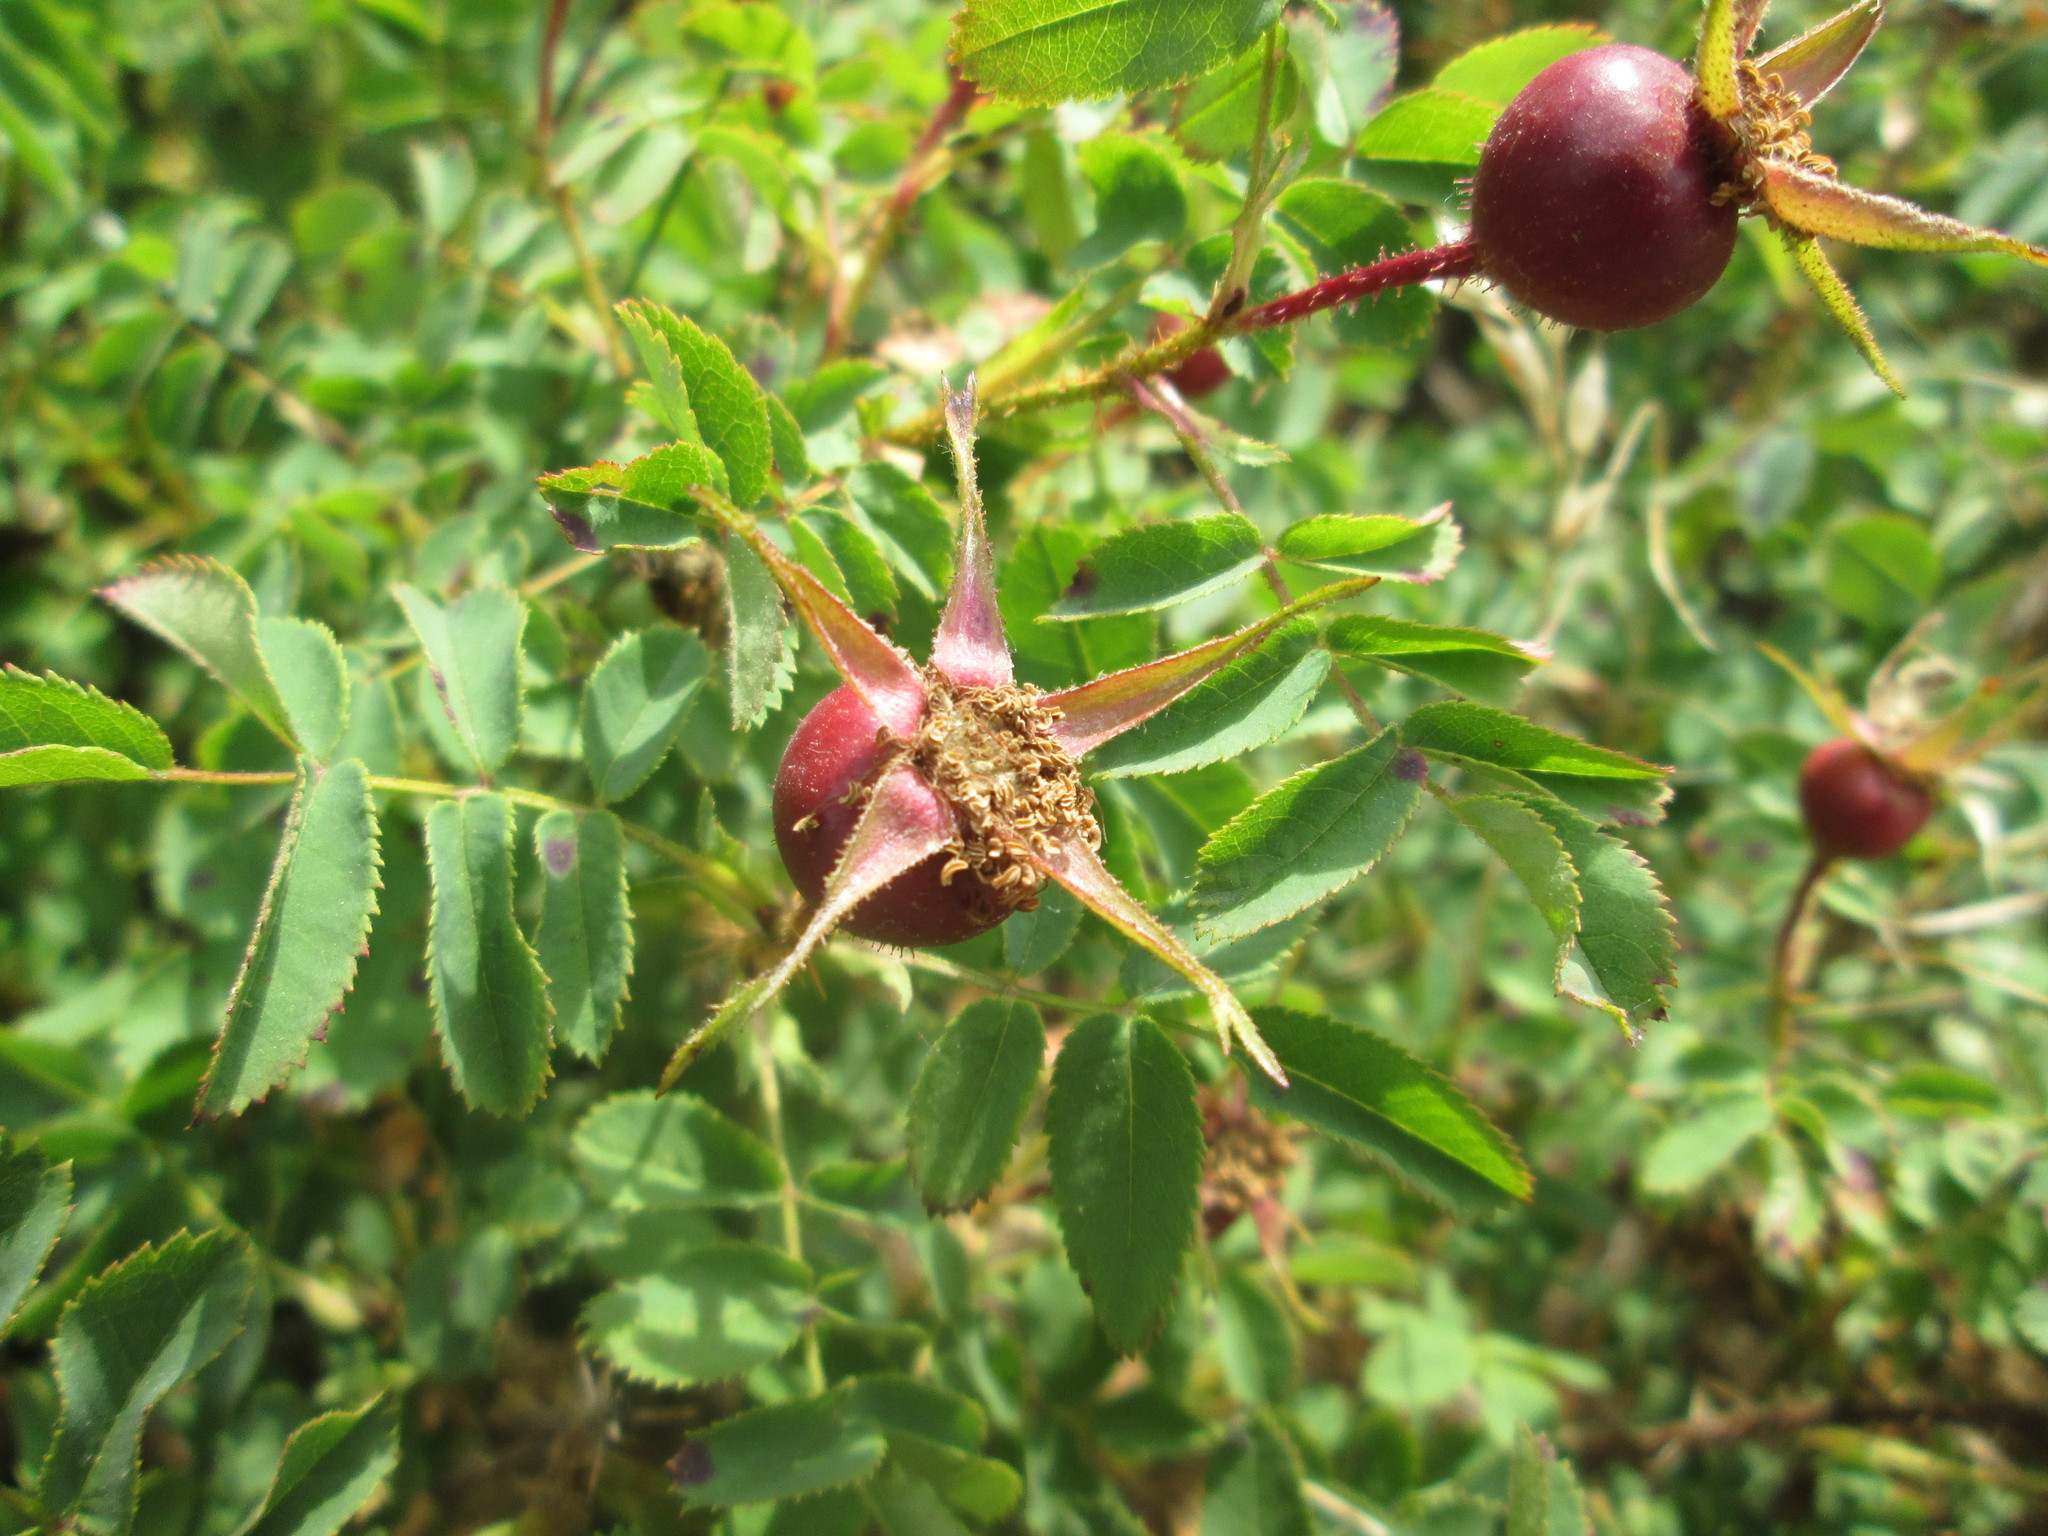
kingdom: Plantae
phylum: Tracheophyta
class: Magnoliopsida
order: Rosales
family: Rosaceae
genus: Rosa
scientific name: Rosa spinosissima
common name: Burnet rose
